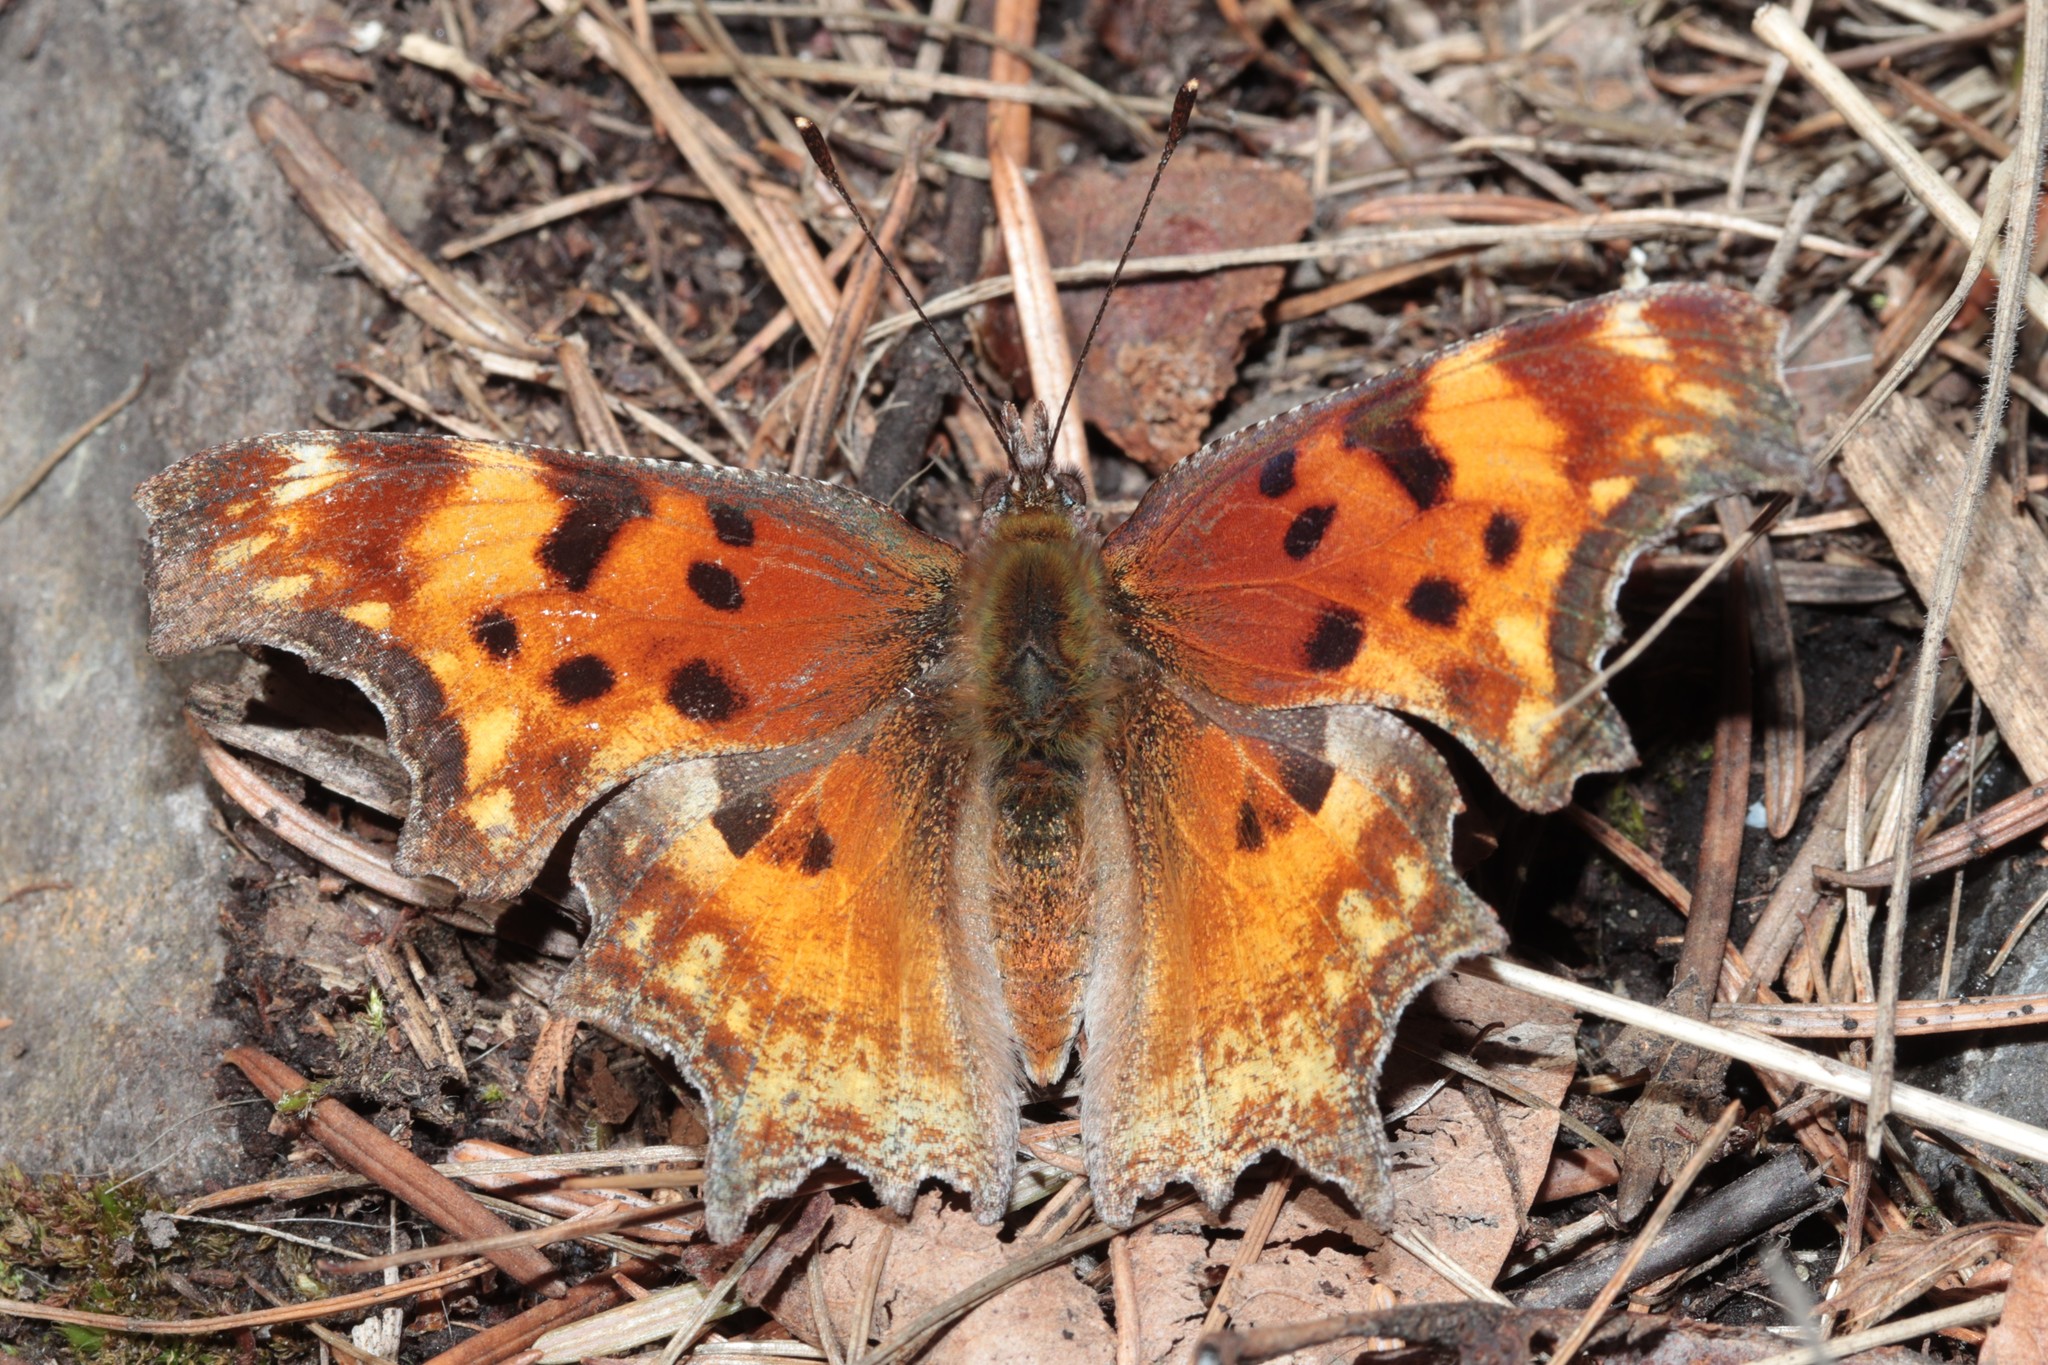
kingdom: Animalia
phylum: Arthropoda
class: Insecta
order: Lepidoptera
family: Nymphalidae
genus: Polygonia
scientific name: Polygonia gracilis
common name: Hoary comma
